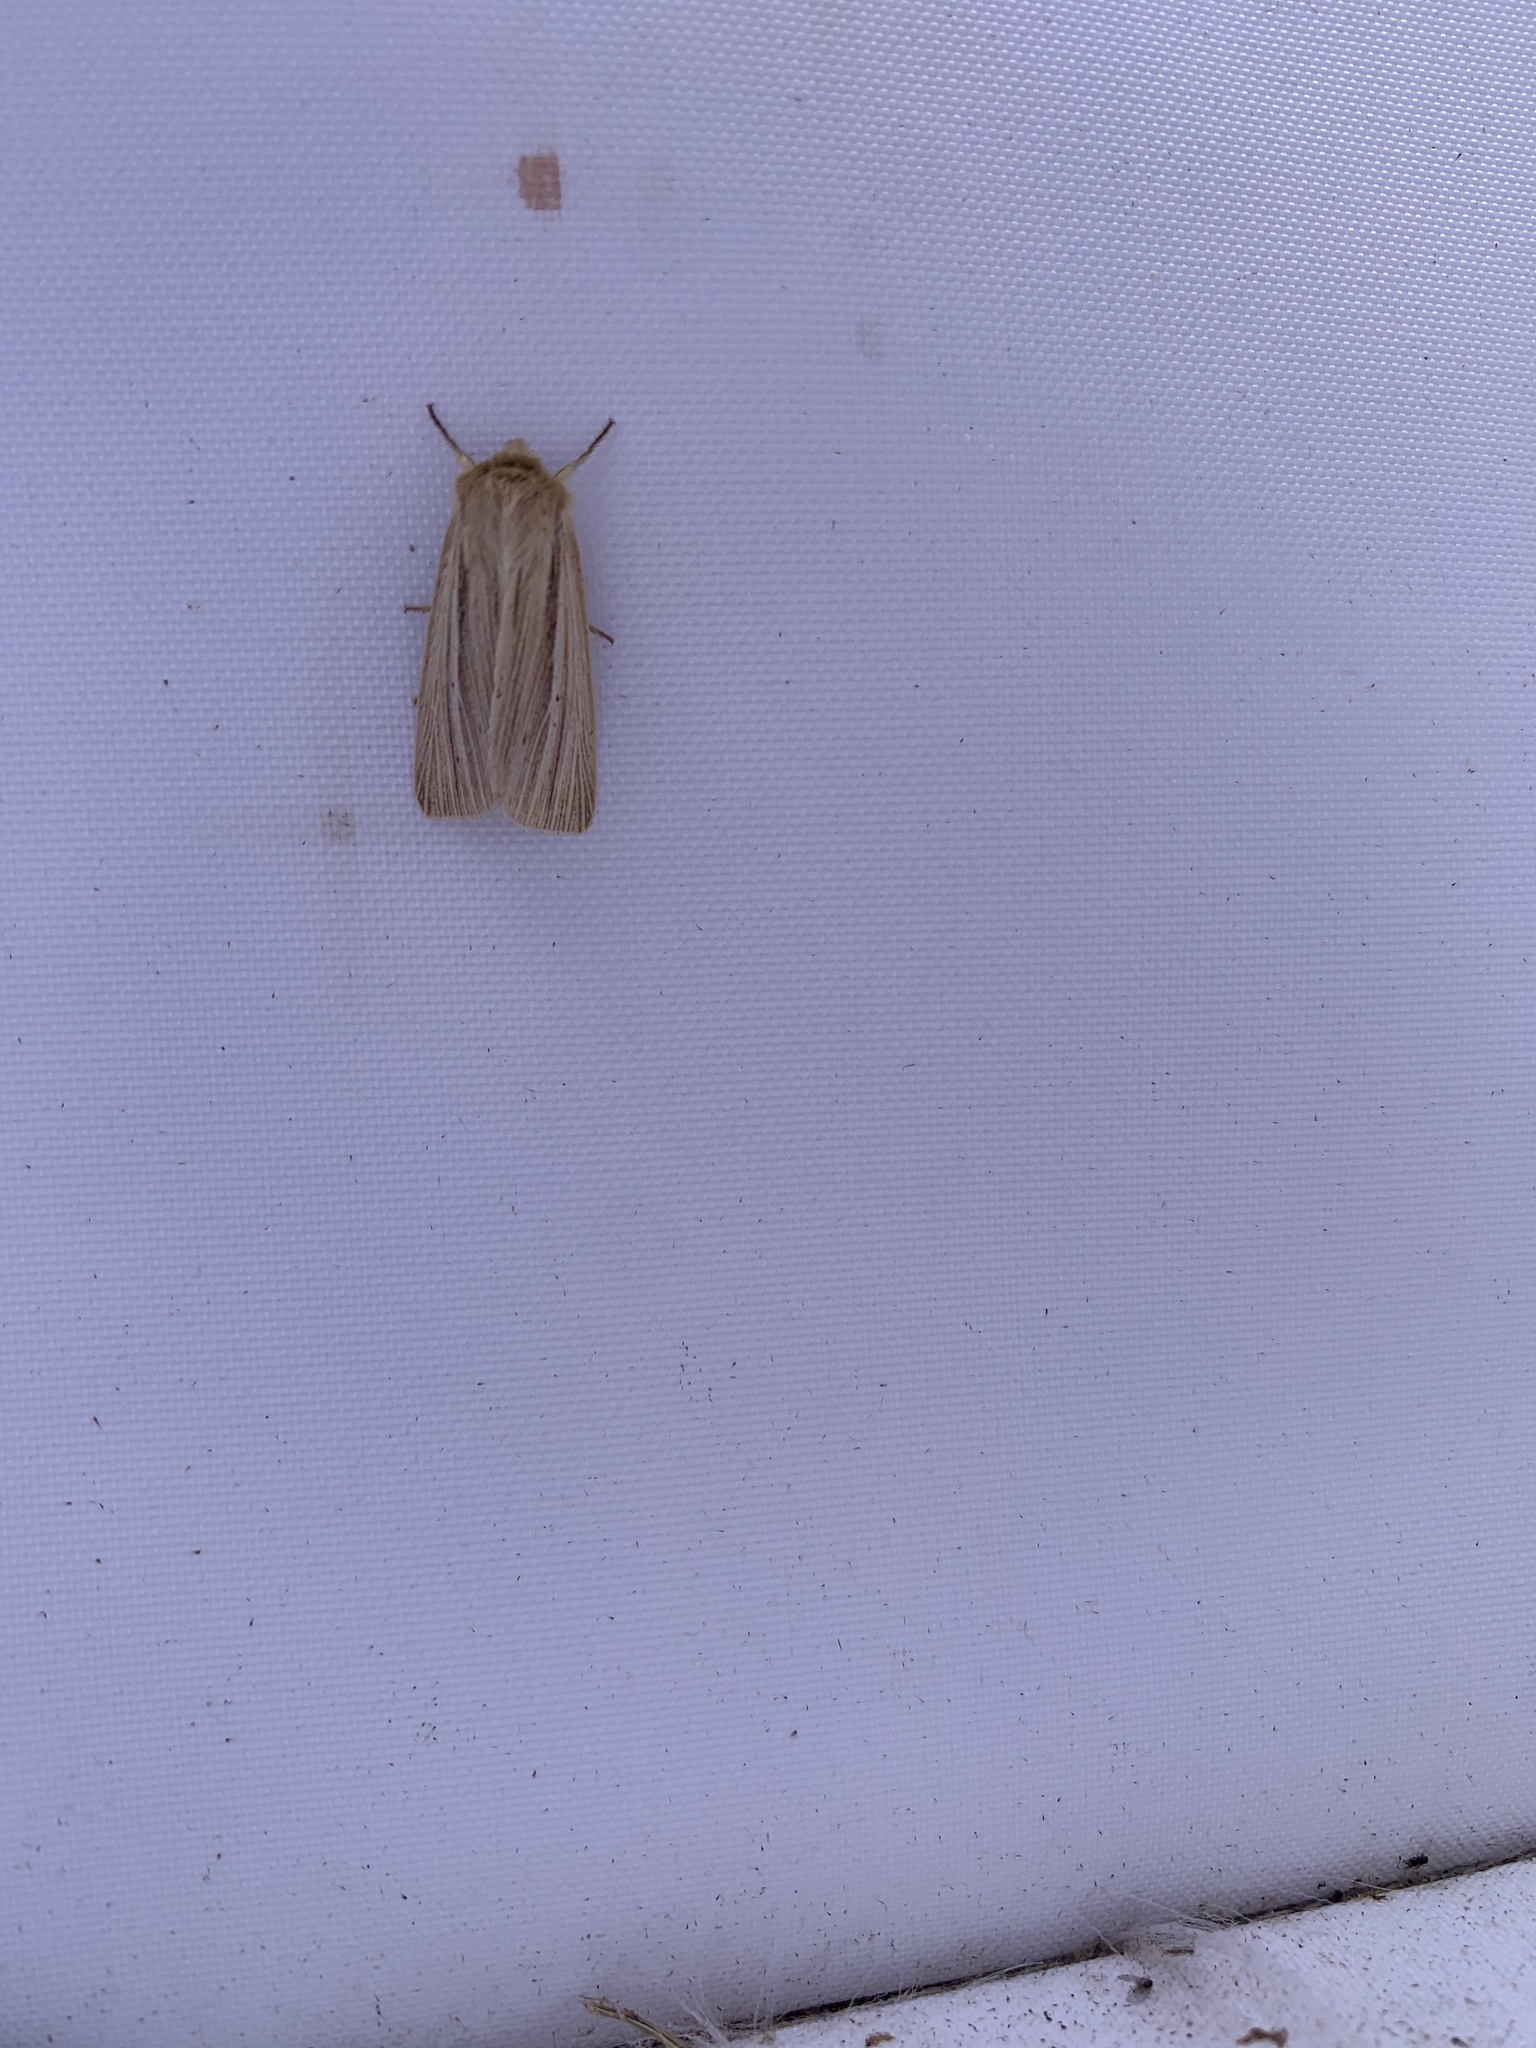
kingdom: Animalia
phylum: Arthropoda
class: Insecta
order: Lepidoptera
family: Noctuidae
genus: Mythimna
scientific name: Mythimna impura
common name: Smoky wainscot
